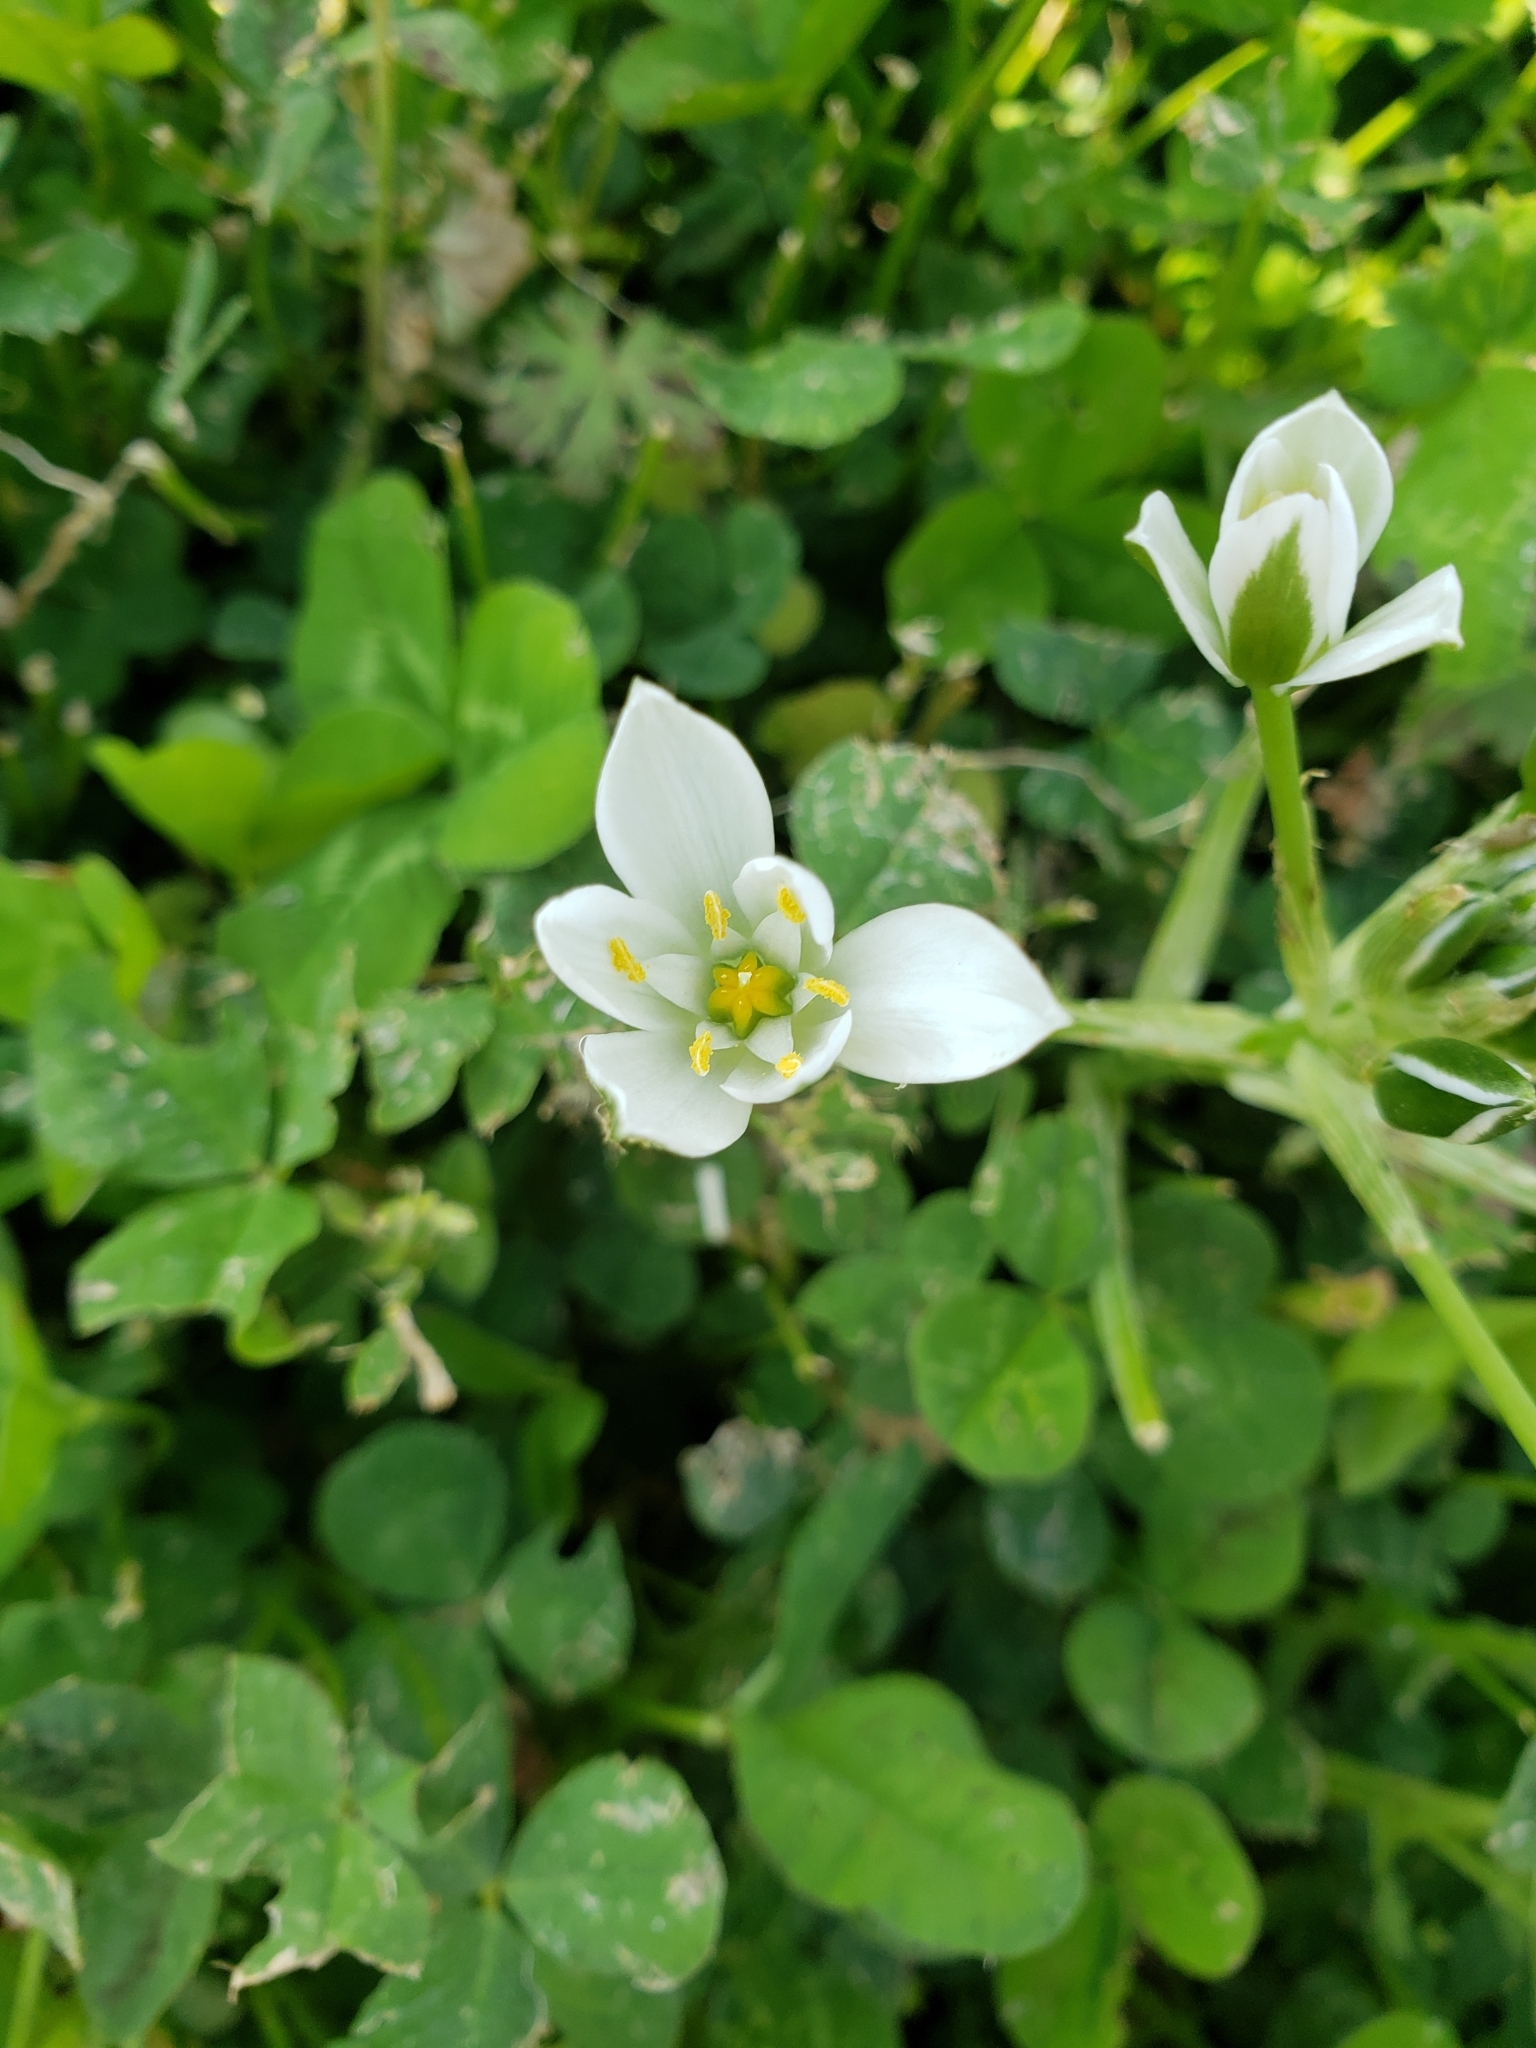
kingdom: Plantae
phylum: Tracheophyta
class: Liliopsida
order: Asparagales
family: Asparagaceae
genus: Ornithogalum
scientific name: Ornithogalum umbellatum
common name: Garden star-of-bethlehem
